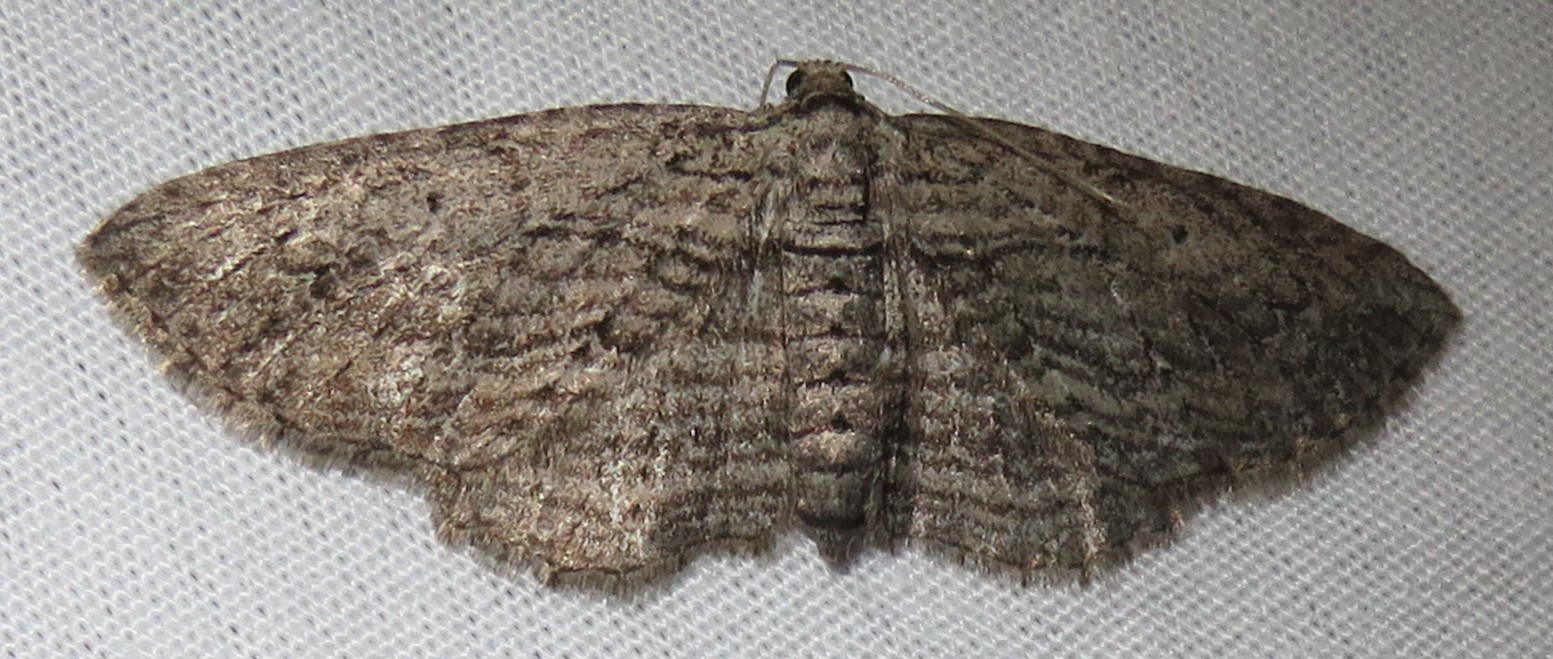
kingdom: Animalia
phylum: Arthropoda
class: Insecta
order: Lepidoptera
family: Geometridae
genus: Horisme
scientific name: Horisme intestinata
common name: Brown bark carpet
